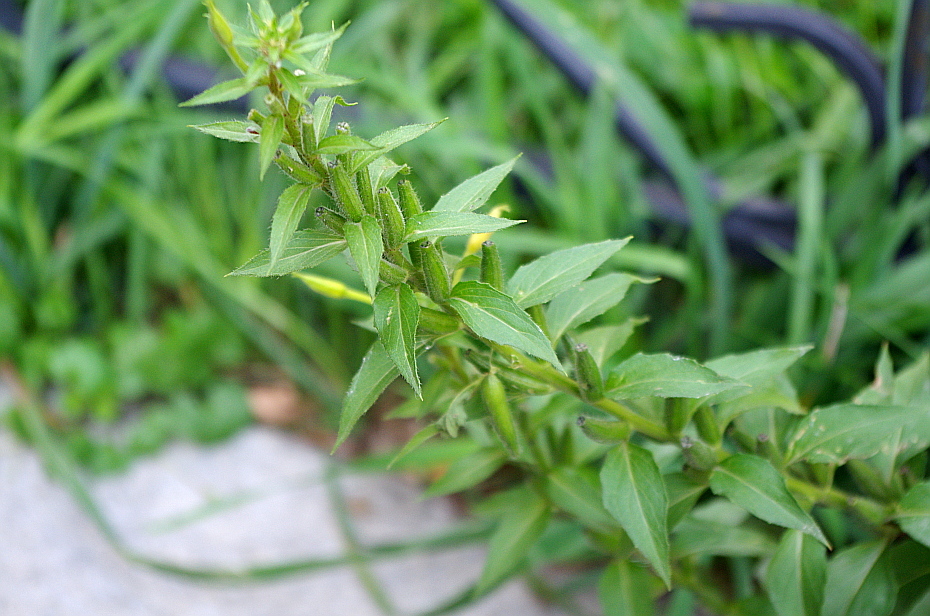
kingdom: Plantae
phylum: Tracheophyta
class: Magnoliopsida
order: Myrtales
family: Onagraceae
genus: Oenothera
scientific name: Oenothera rubricaulis
